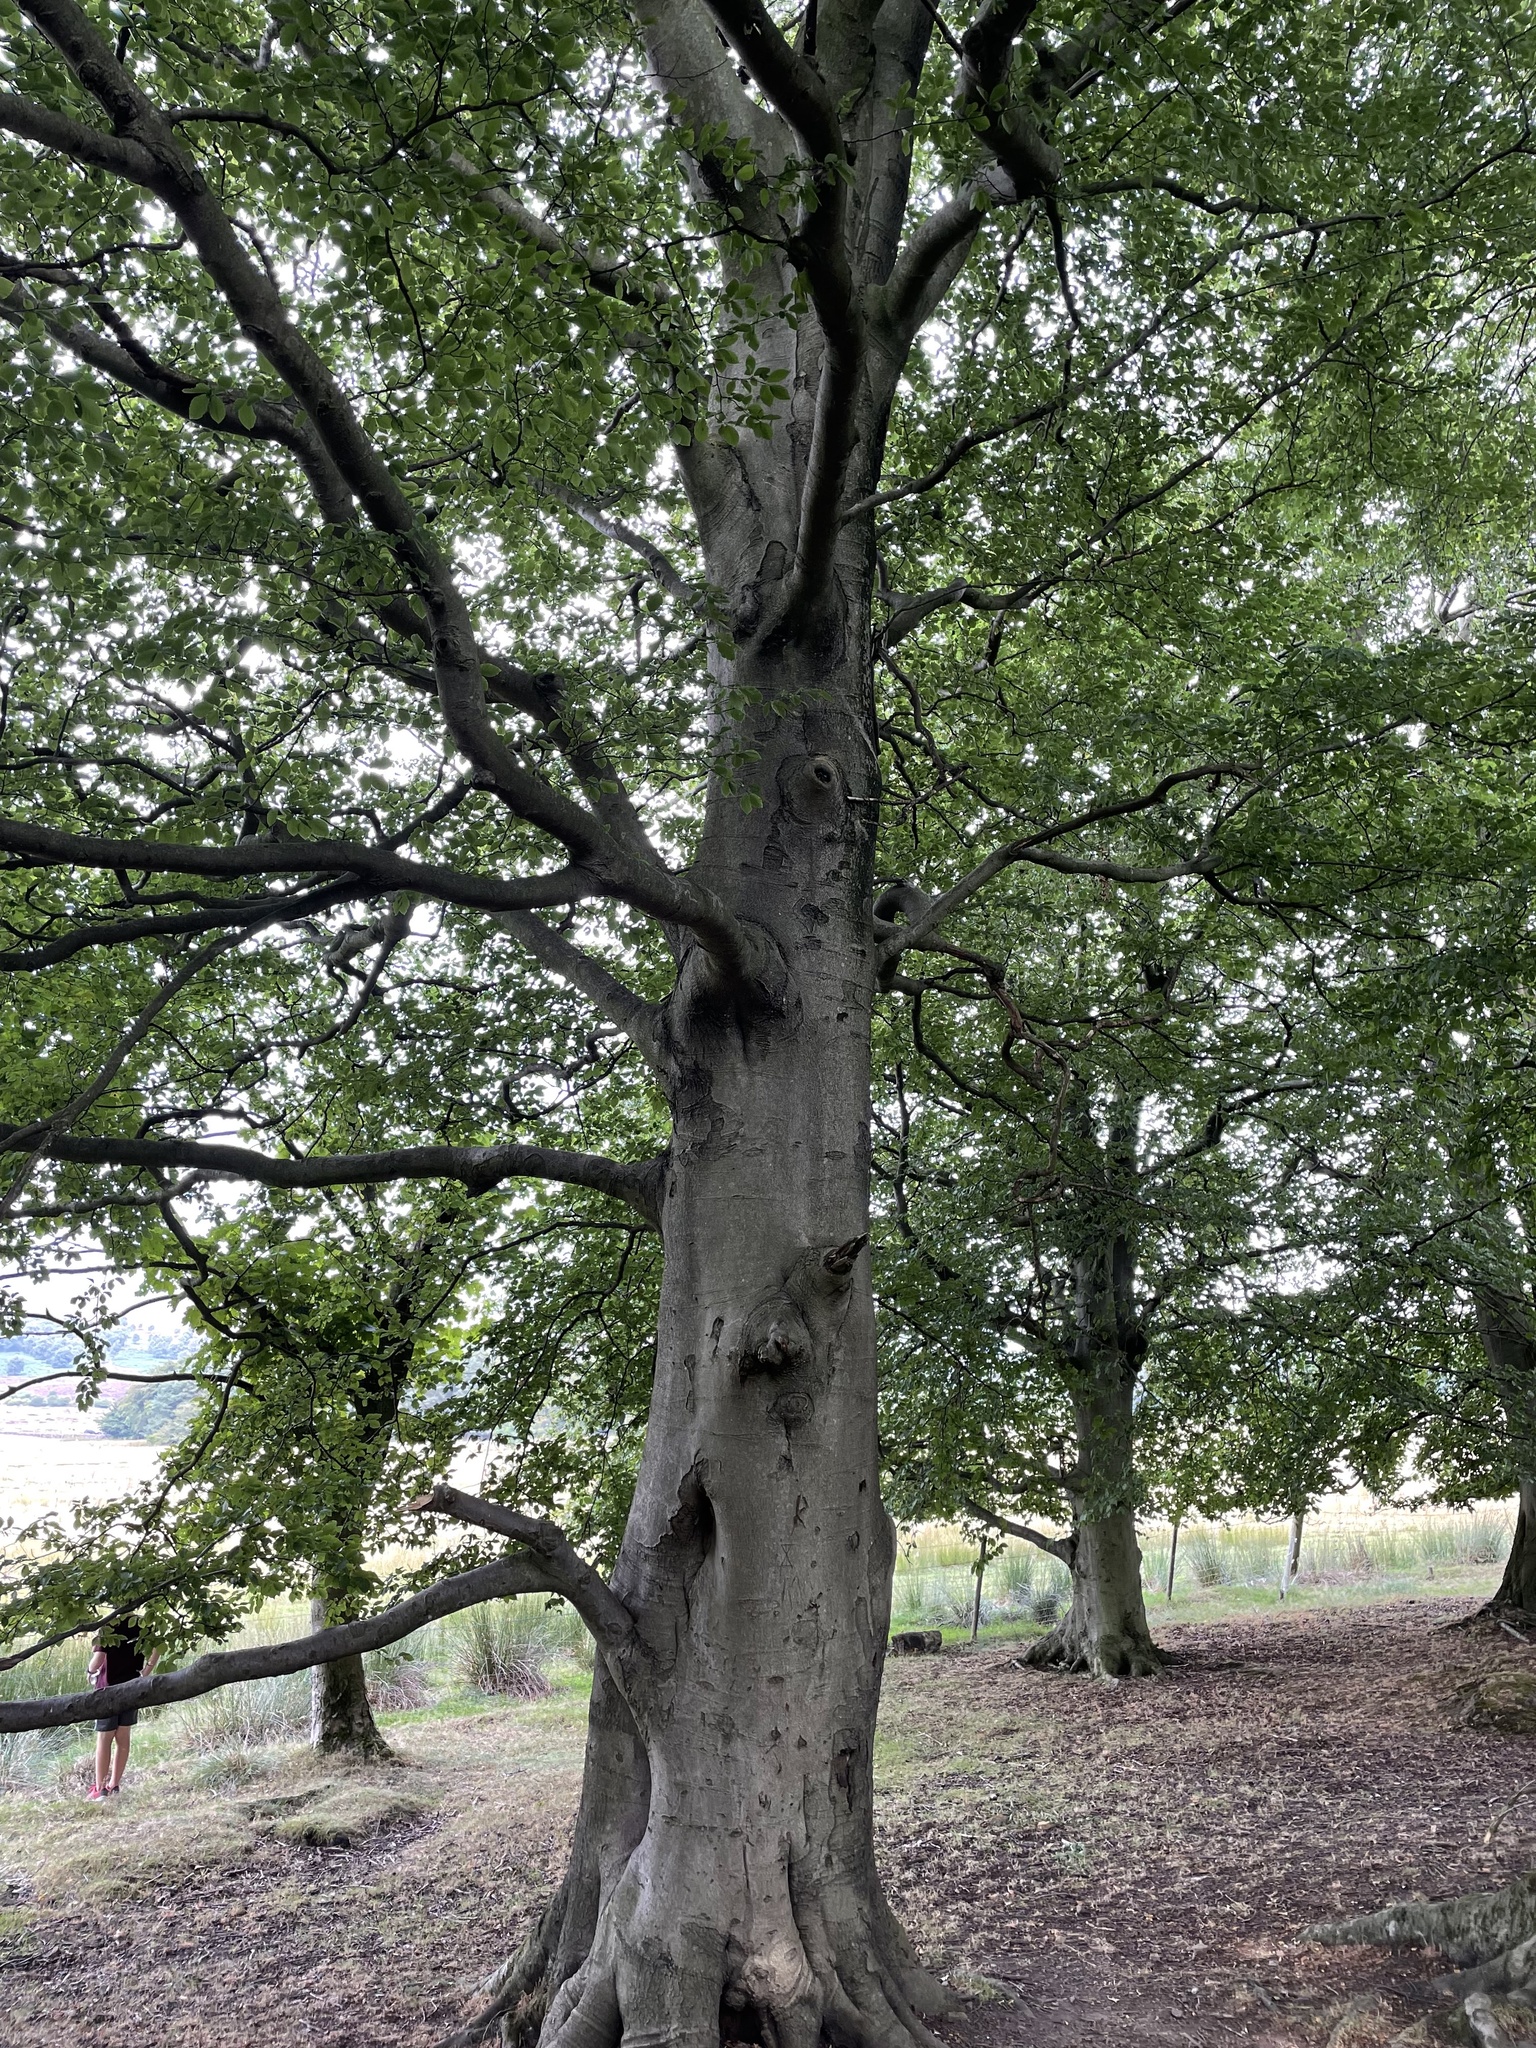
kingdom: Plantae
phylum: Tracheophyta
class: Magnoliopsida
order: Fagales
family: Fagaceae
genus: Fagus
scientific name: Fagus sylvatica
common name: Beech
